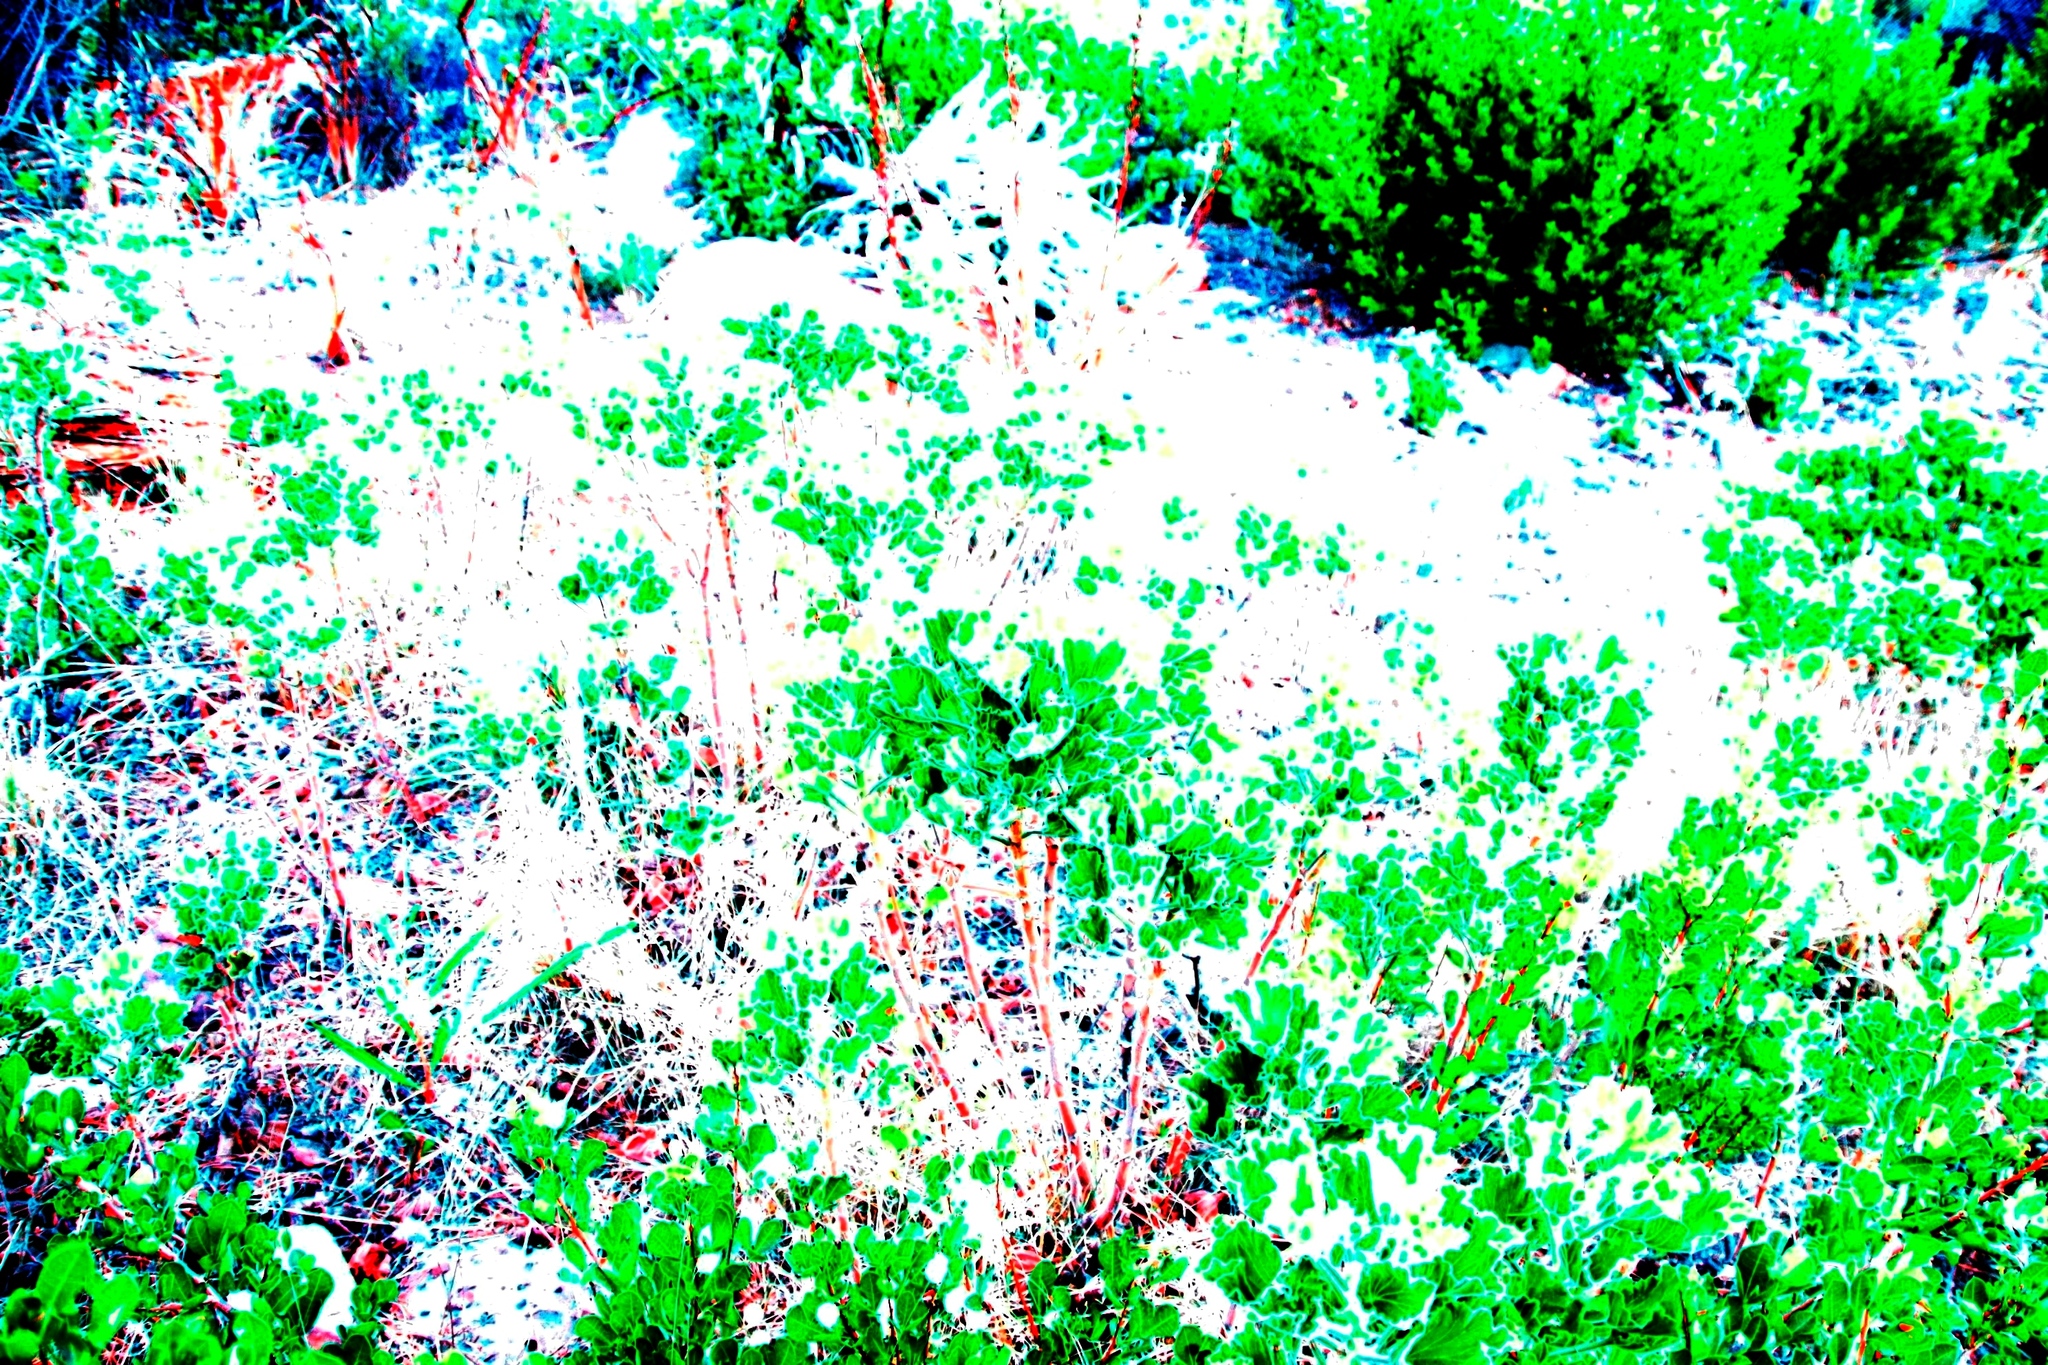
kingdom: Plantae
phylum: Tracheophyta
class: Magnoliopsida
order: Asterales
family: Asteraceae
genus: Osteospermum
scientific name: Osteospermum moniliferum
